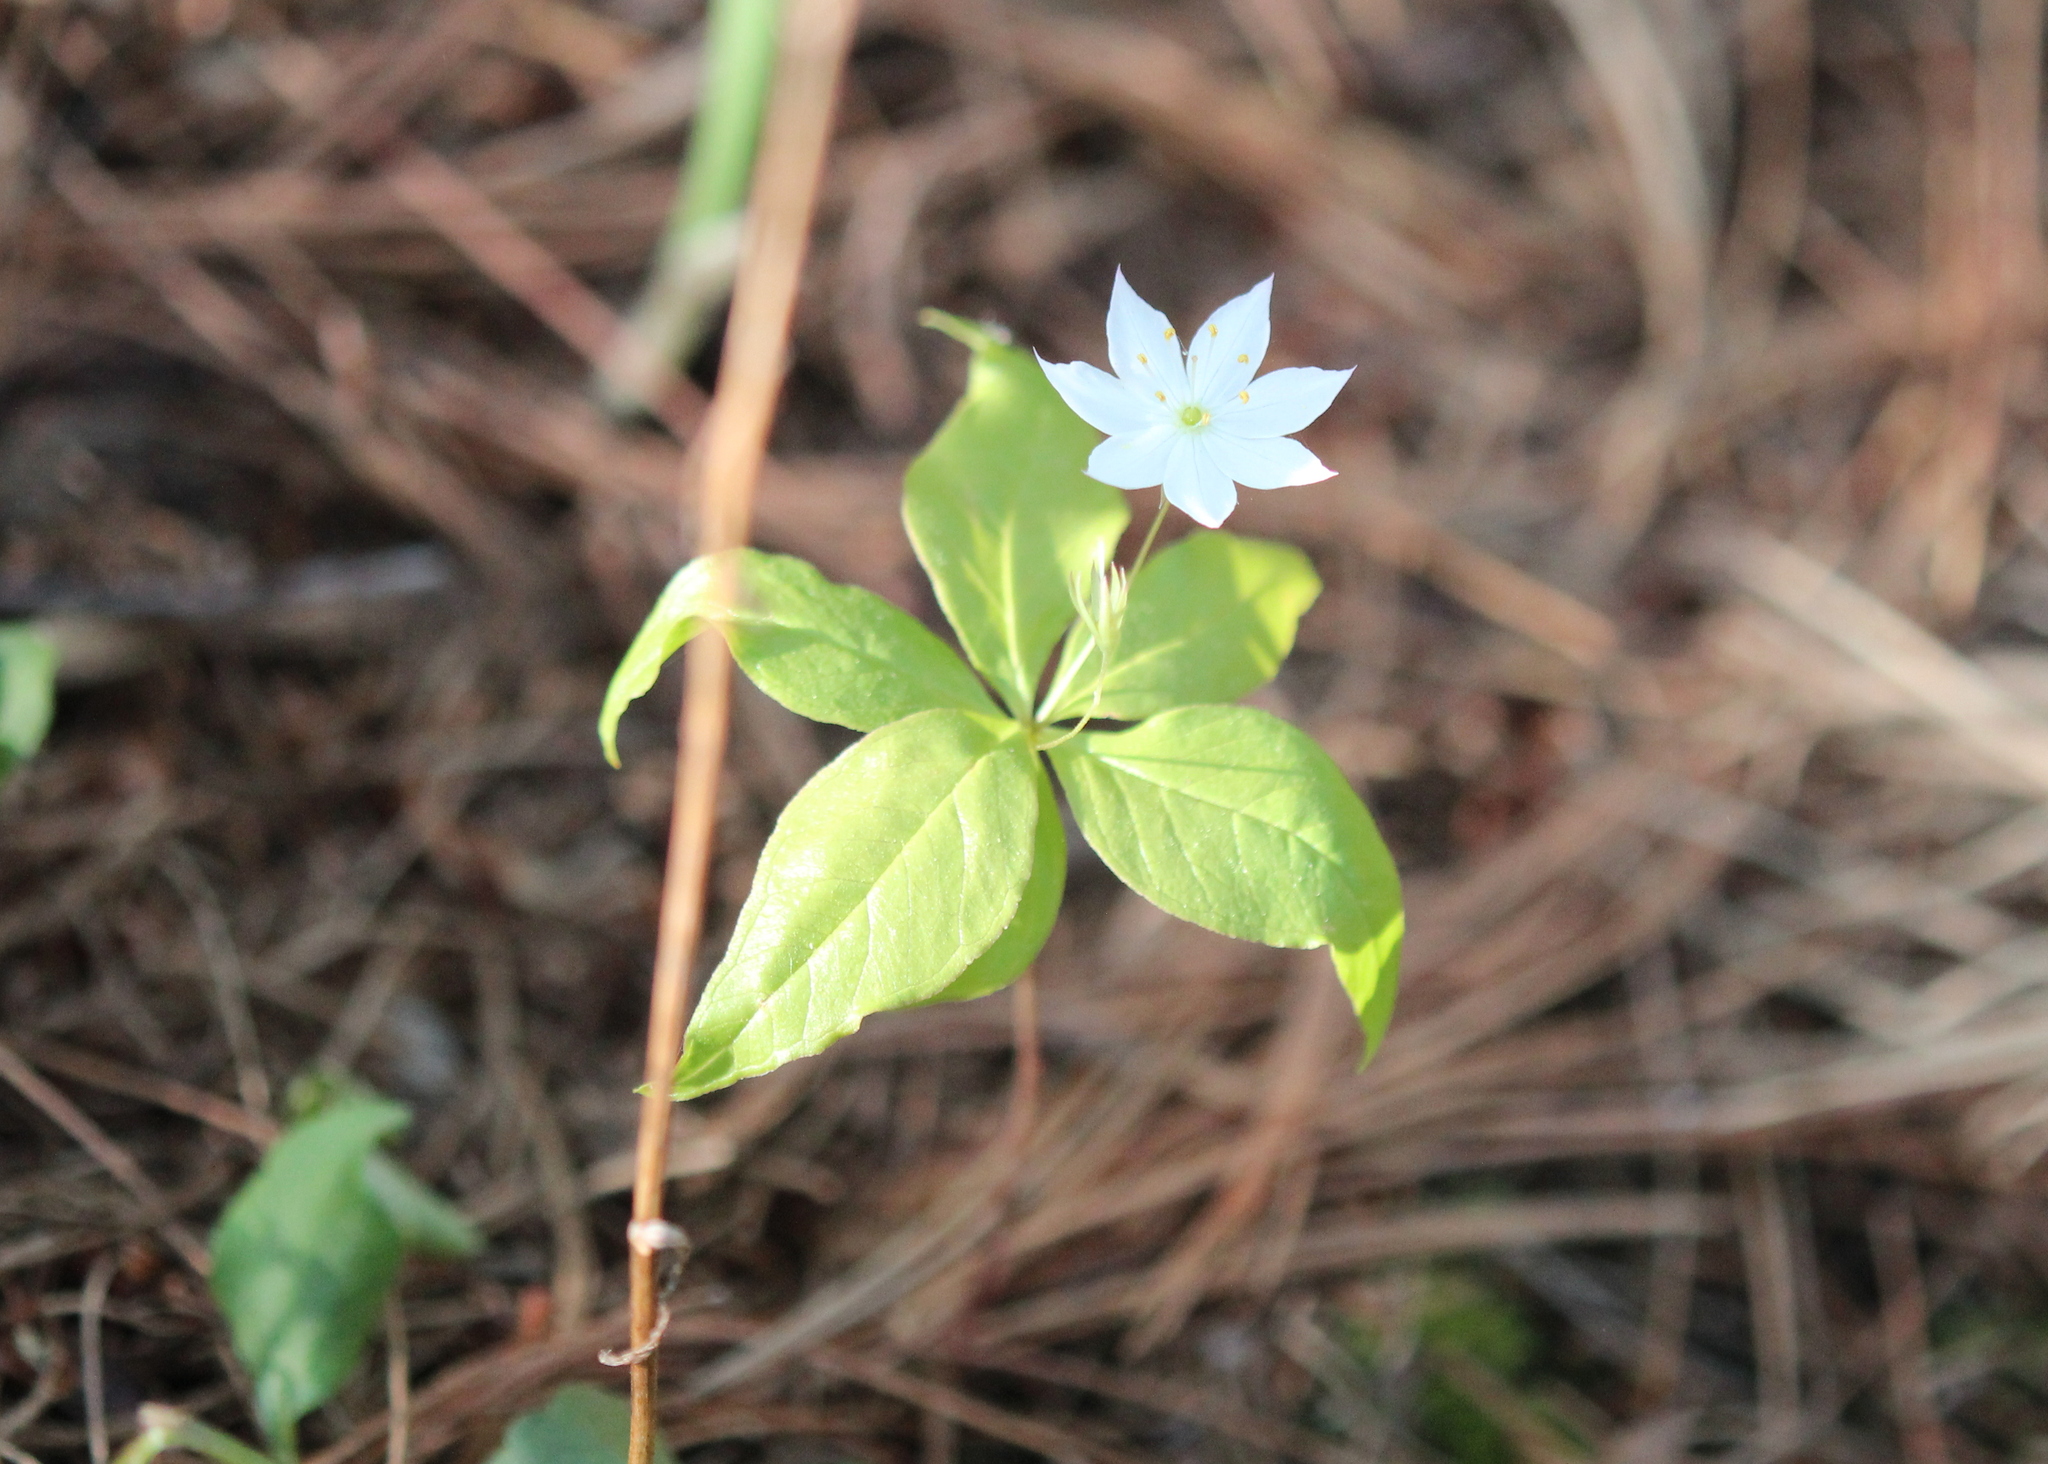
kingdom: Plantae
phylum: Tracheophyta
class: Magnoliopsida
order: Ericales
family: Primulaceae
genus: Lysimachia
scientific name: Lysimachia borealis
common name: American starflower
